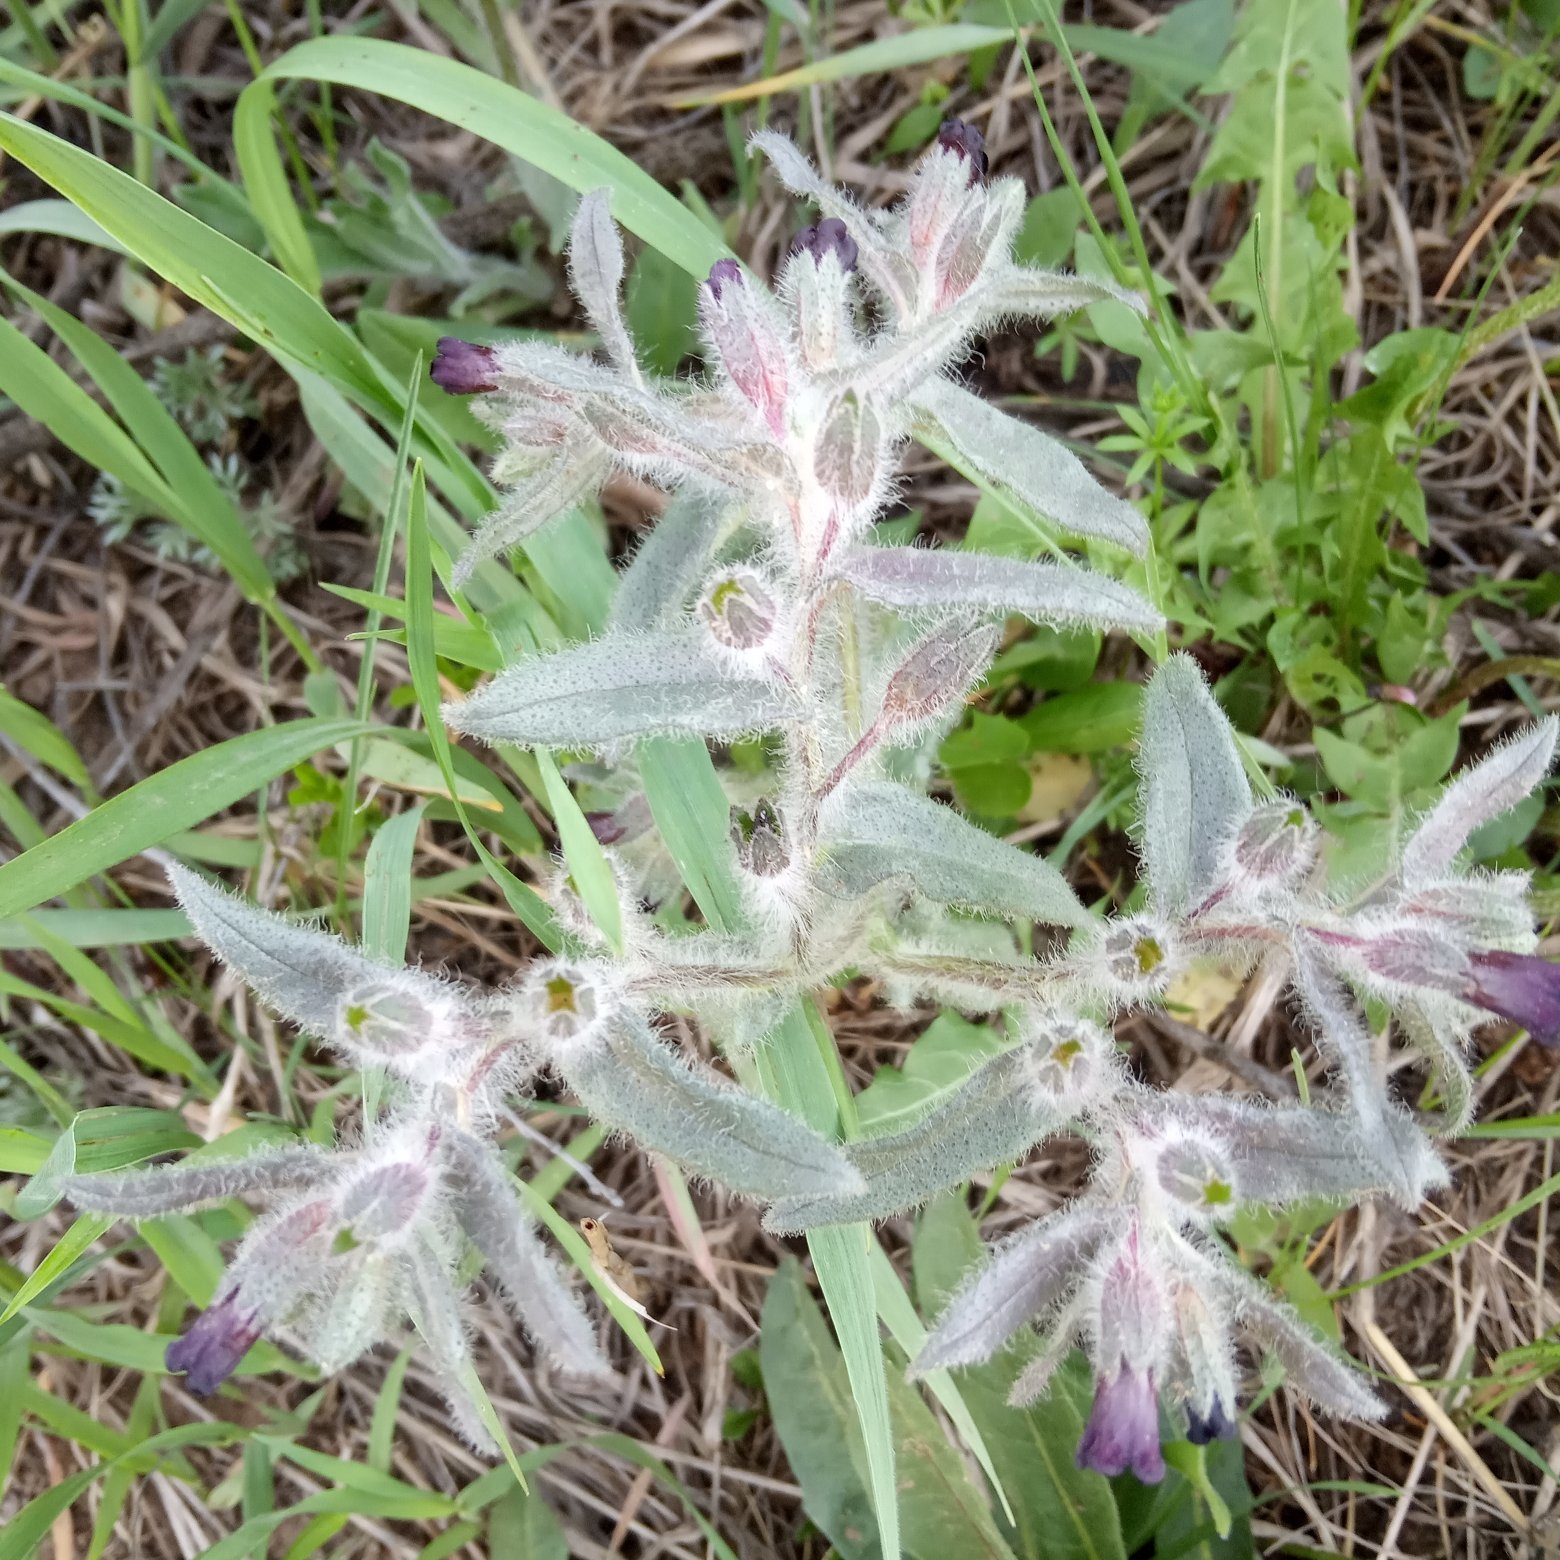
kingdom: Plantae
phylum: Tracheophyta
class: Magnoliopsida
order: Boraginales
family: Boraginaceae
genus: Nonea
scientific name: Nonea pulla
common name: Brown nonea
